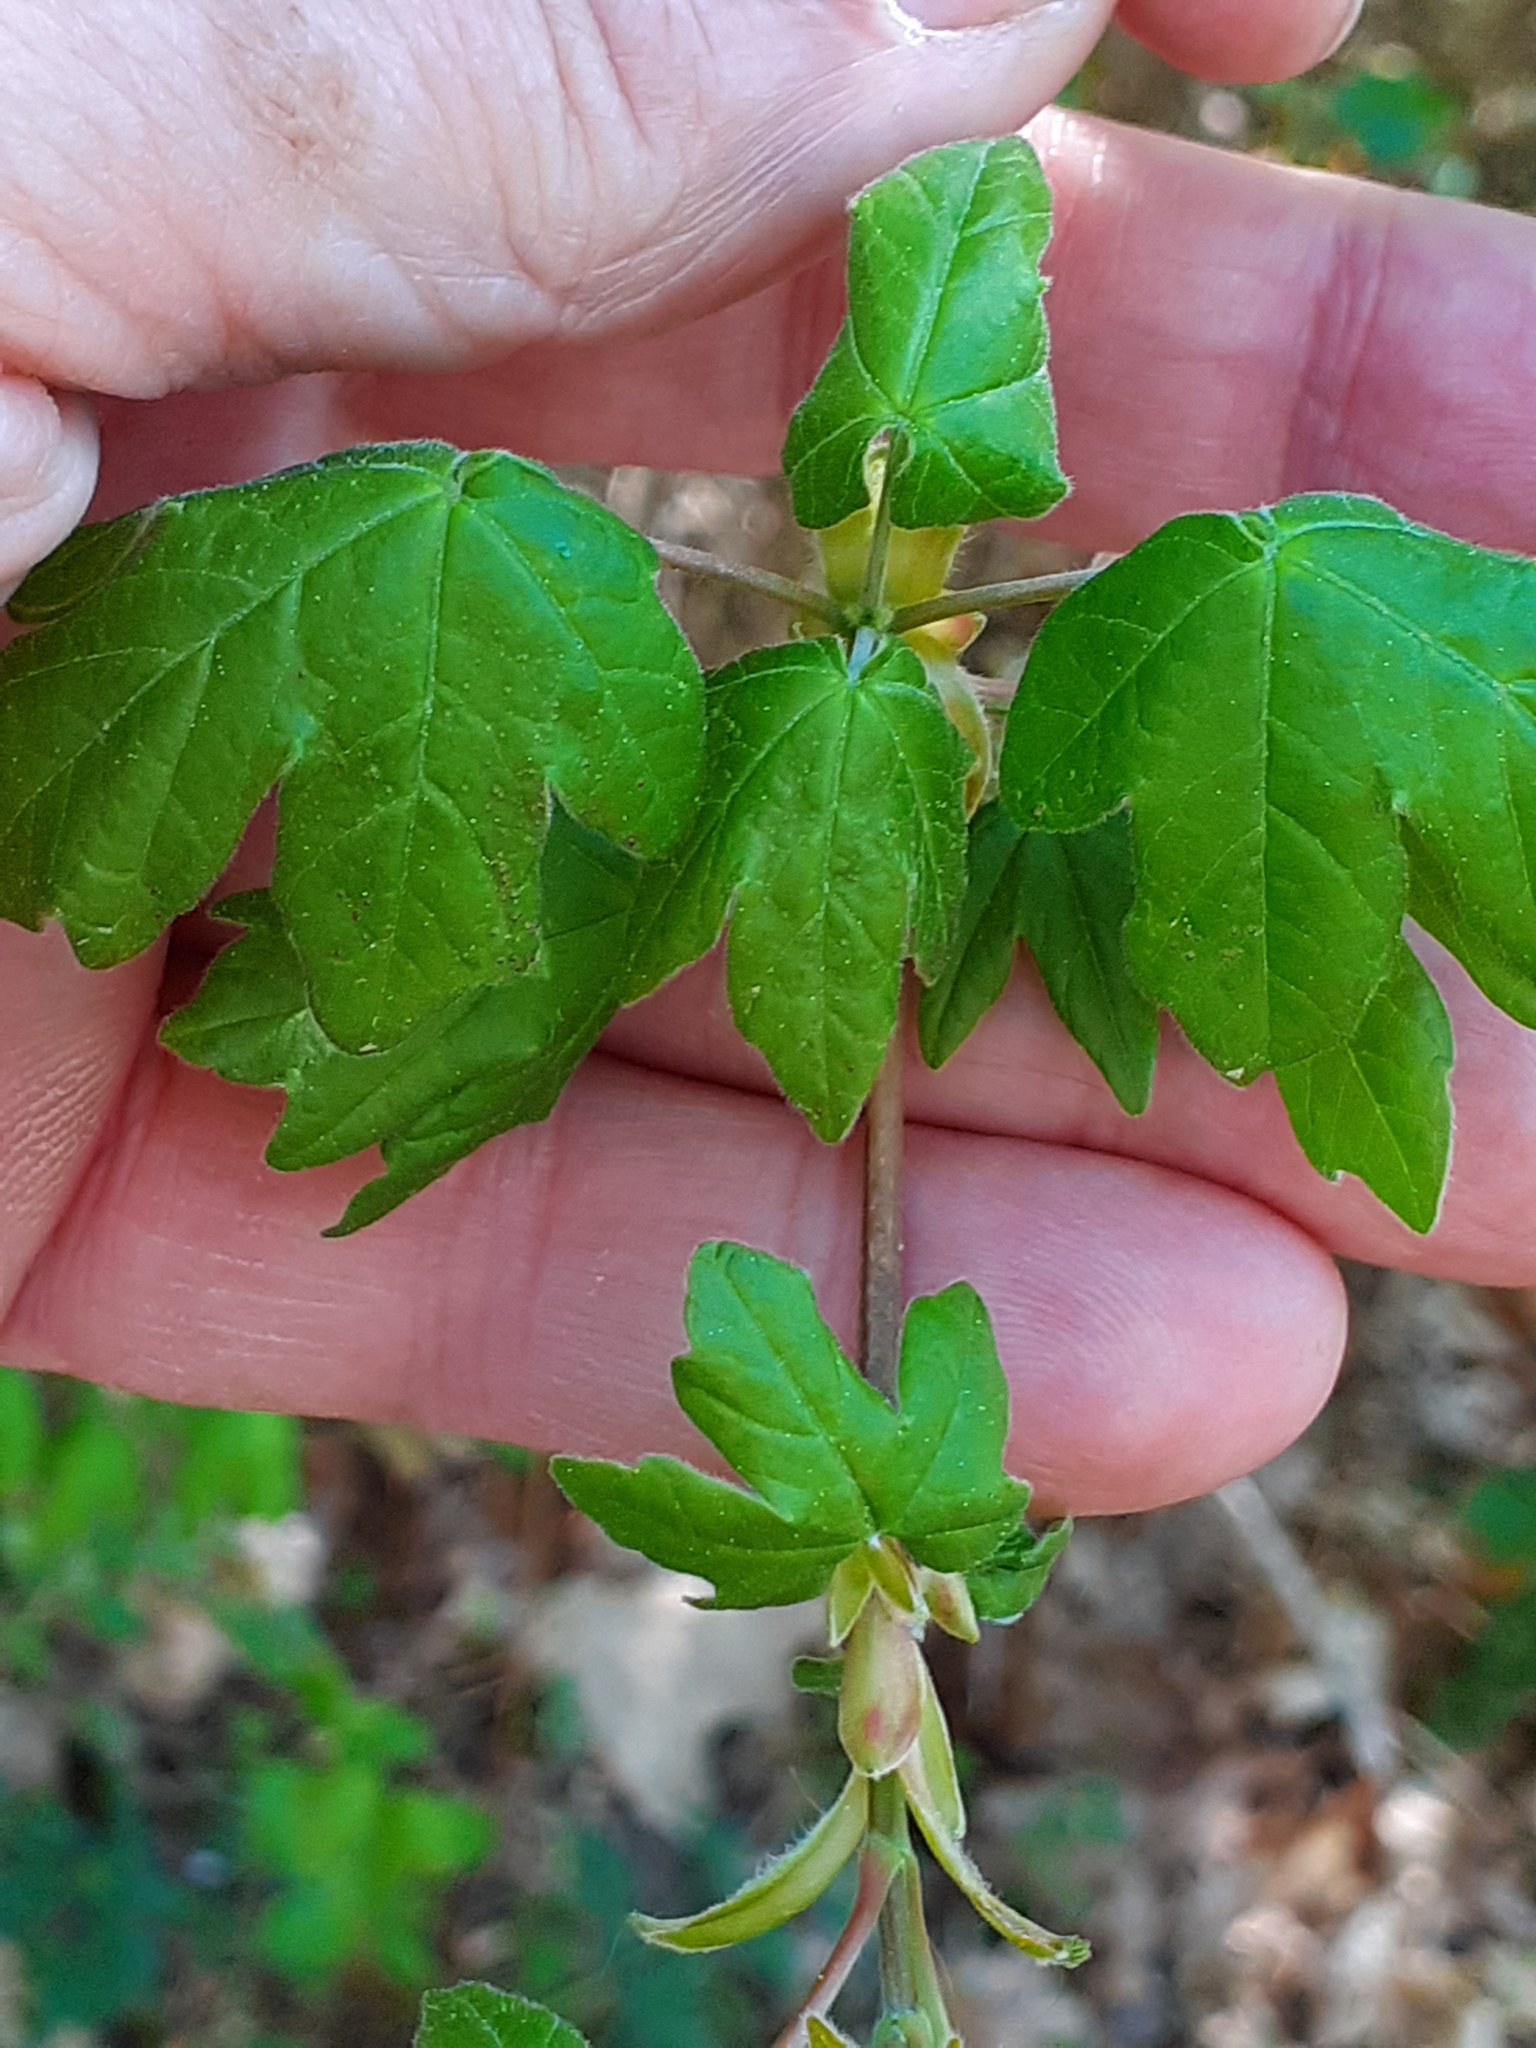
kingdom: Plantae
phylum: Tracheophyta
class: Magnoliopsida
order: Sapindales
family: Sapindaceae
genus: Acer
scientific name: Acer campestre
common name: Field maple
